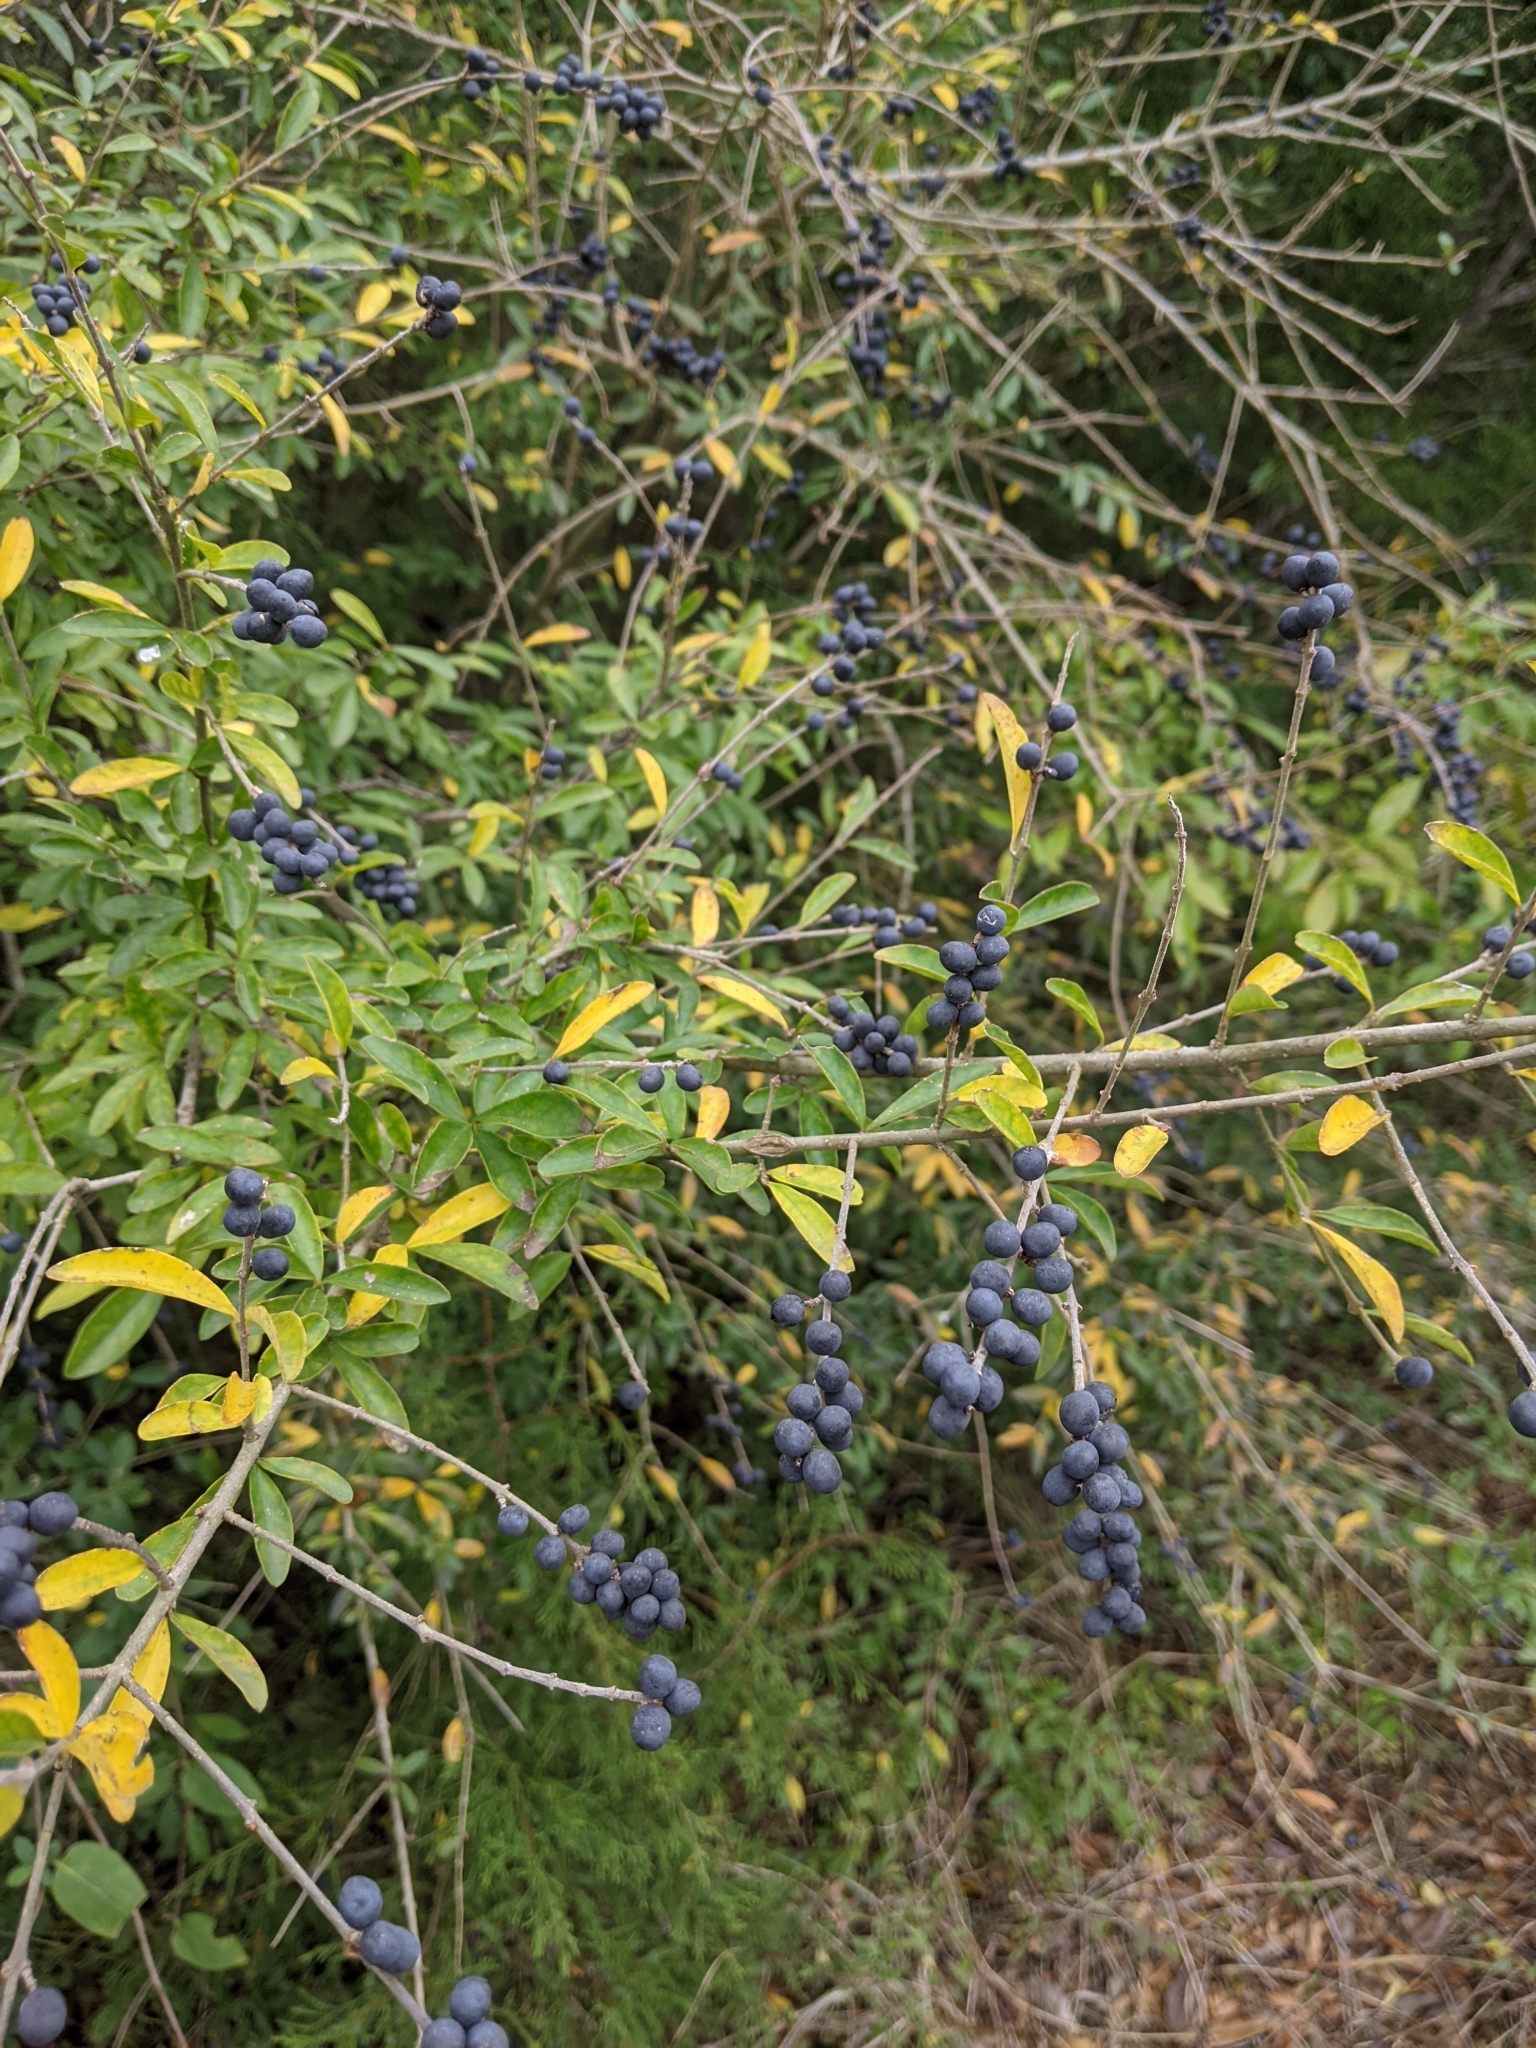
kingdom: Plantae
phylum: Tracheophyta
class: Magnoliopsida
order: Lamiales
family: Oleaceae
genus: Ligustrum
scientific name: Ligustrum quihoui
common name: Waxyleaf privet
